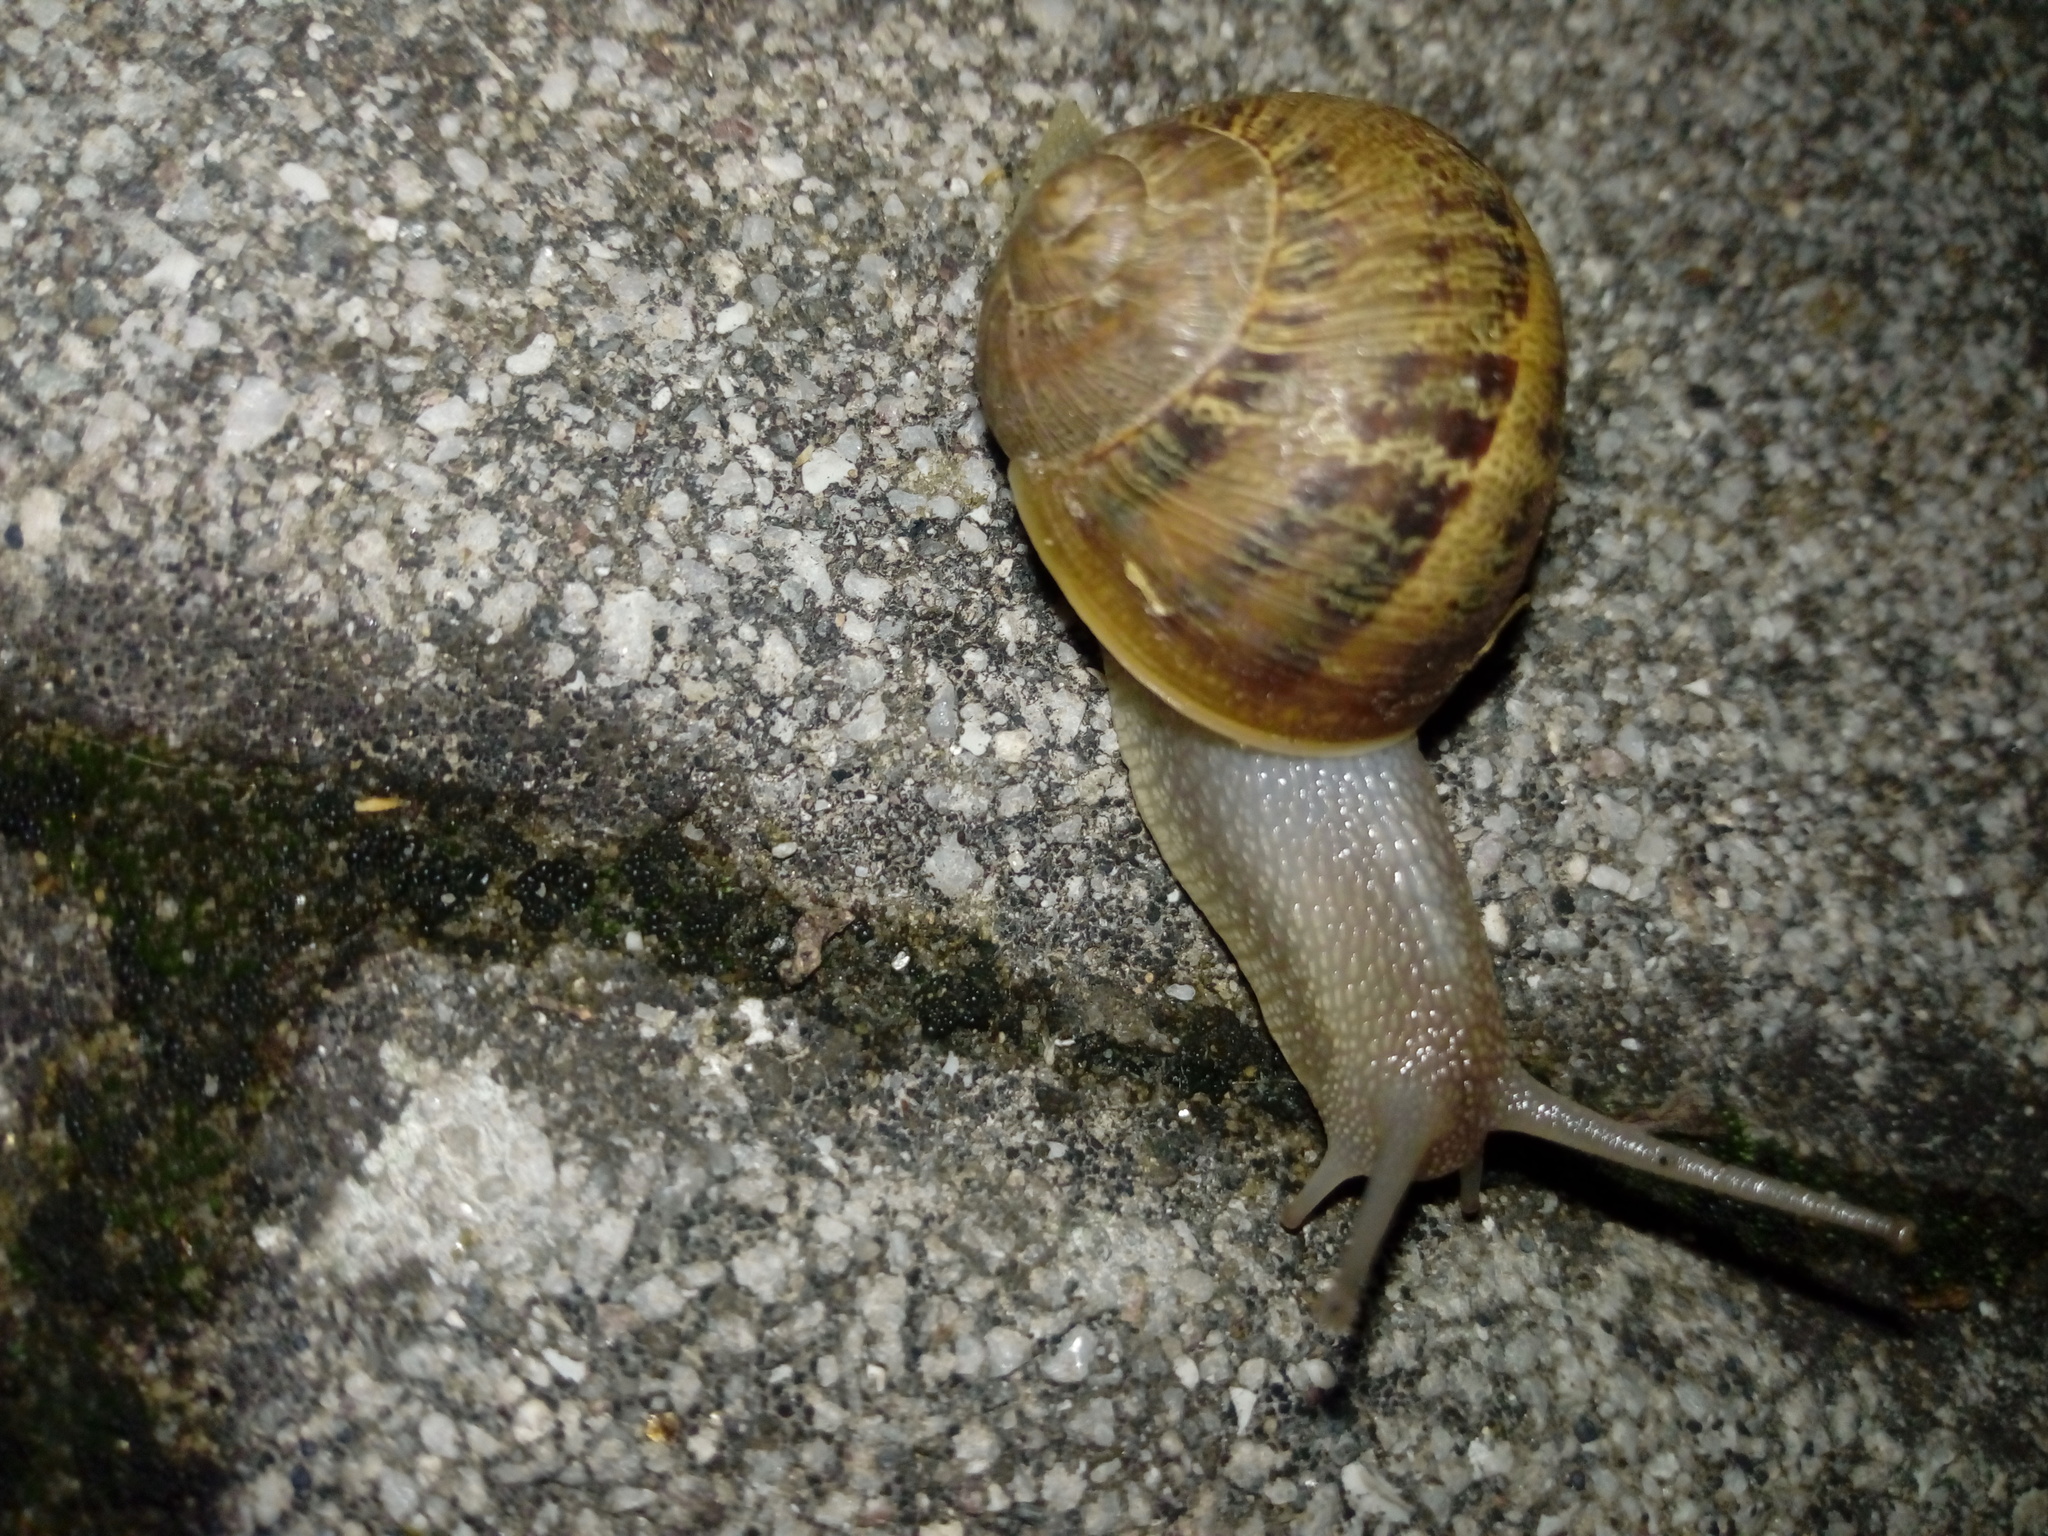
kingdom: Animalia
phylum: Mollusca
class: Gastropoda
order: Stylommatophora
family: Helicidae
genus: Cornu
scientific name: Cornu aspersum
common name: Brown garden snail
